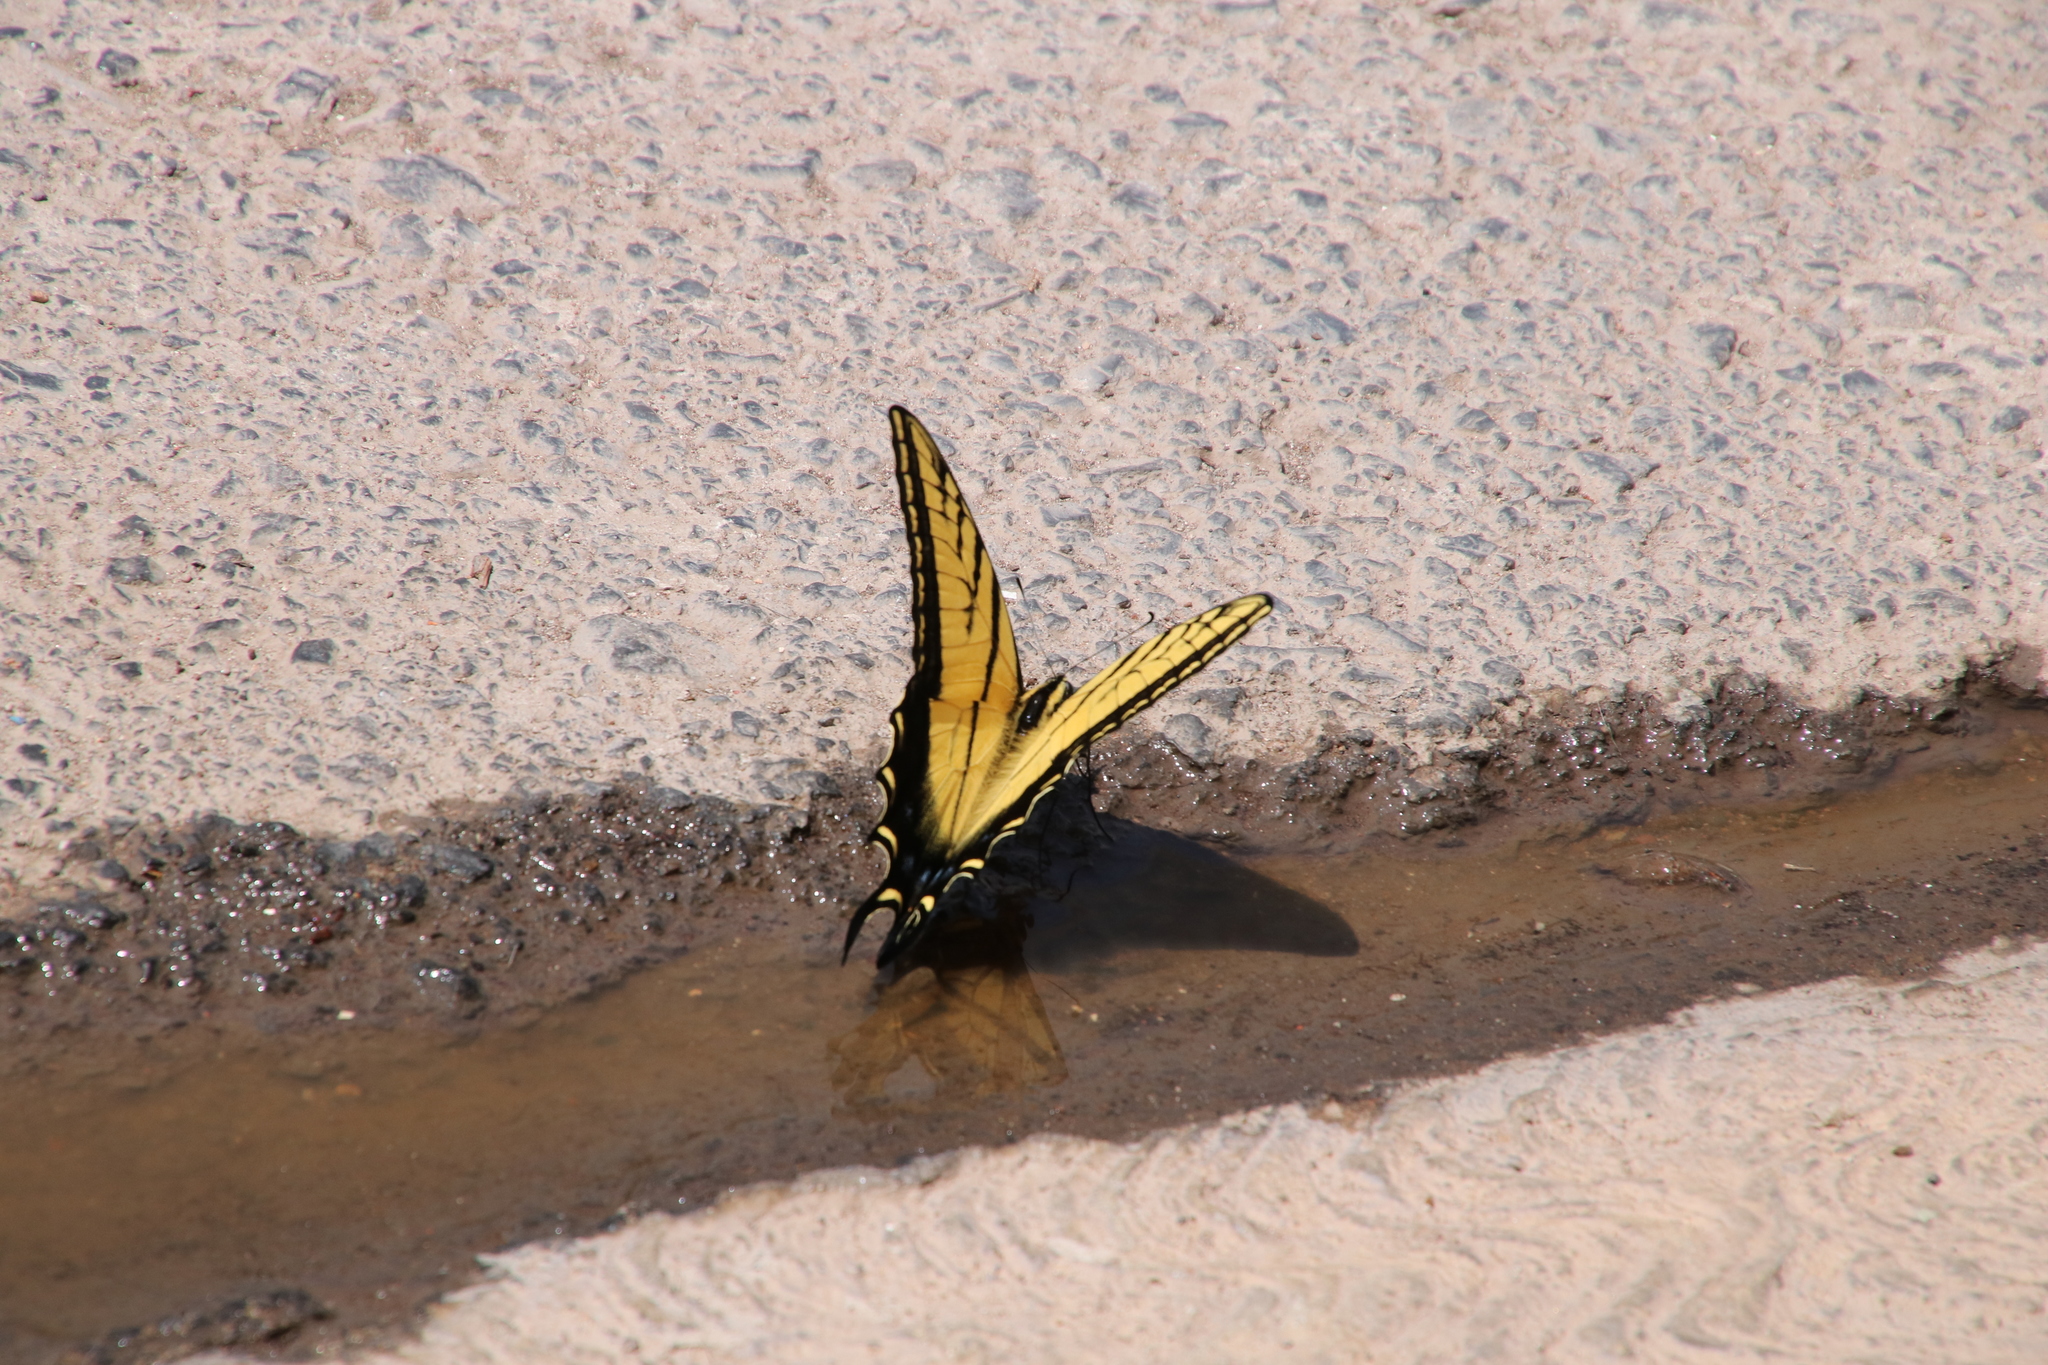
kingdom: Animalia
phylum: Arthropoda
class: Insecta
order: Lepidoptera
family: Papilionidae
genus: Papilio
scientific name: Papilio multicaudata
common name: Two-tailed tiger swallowtail
